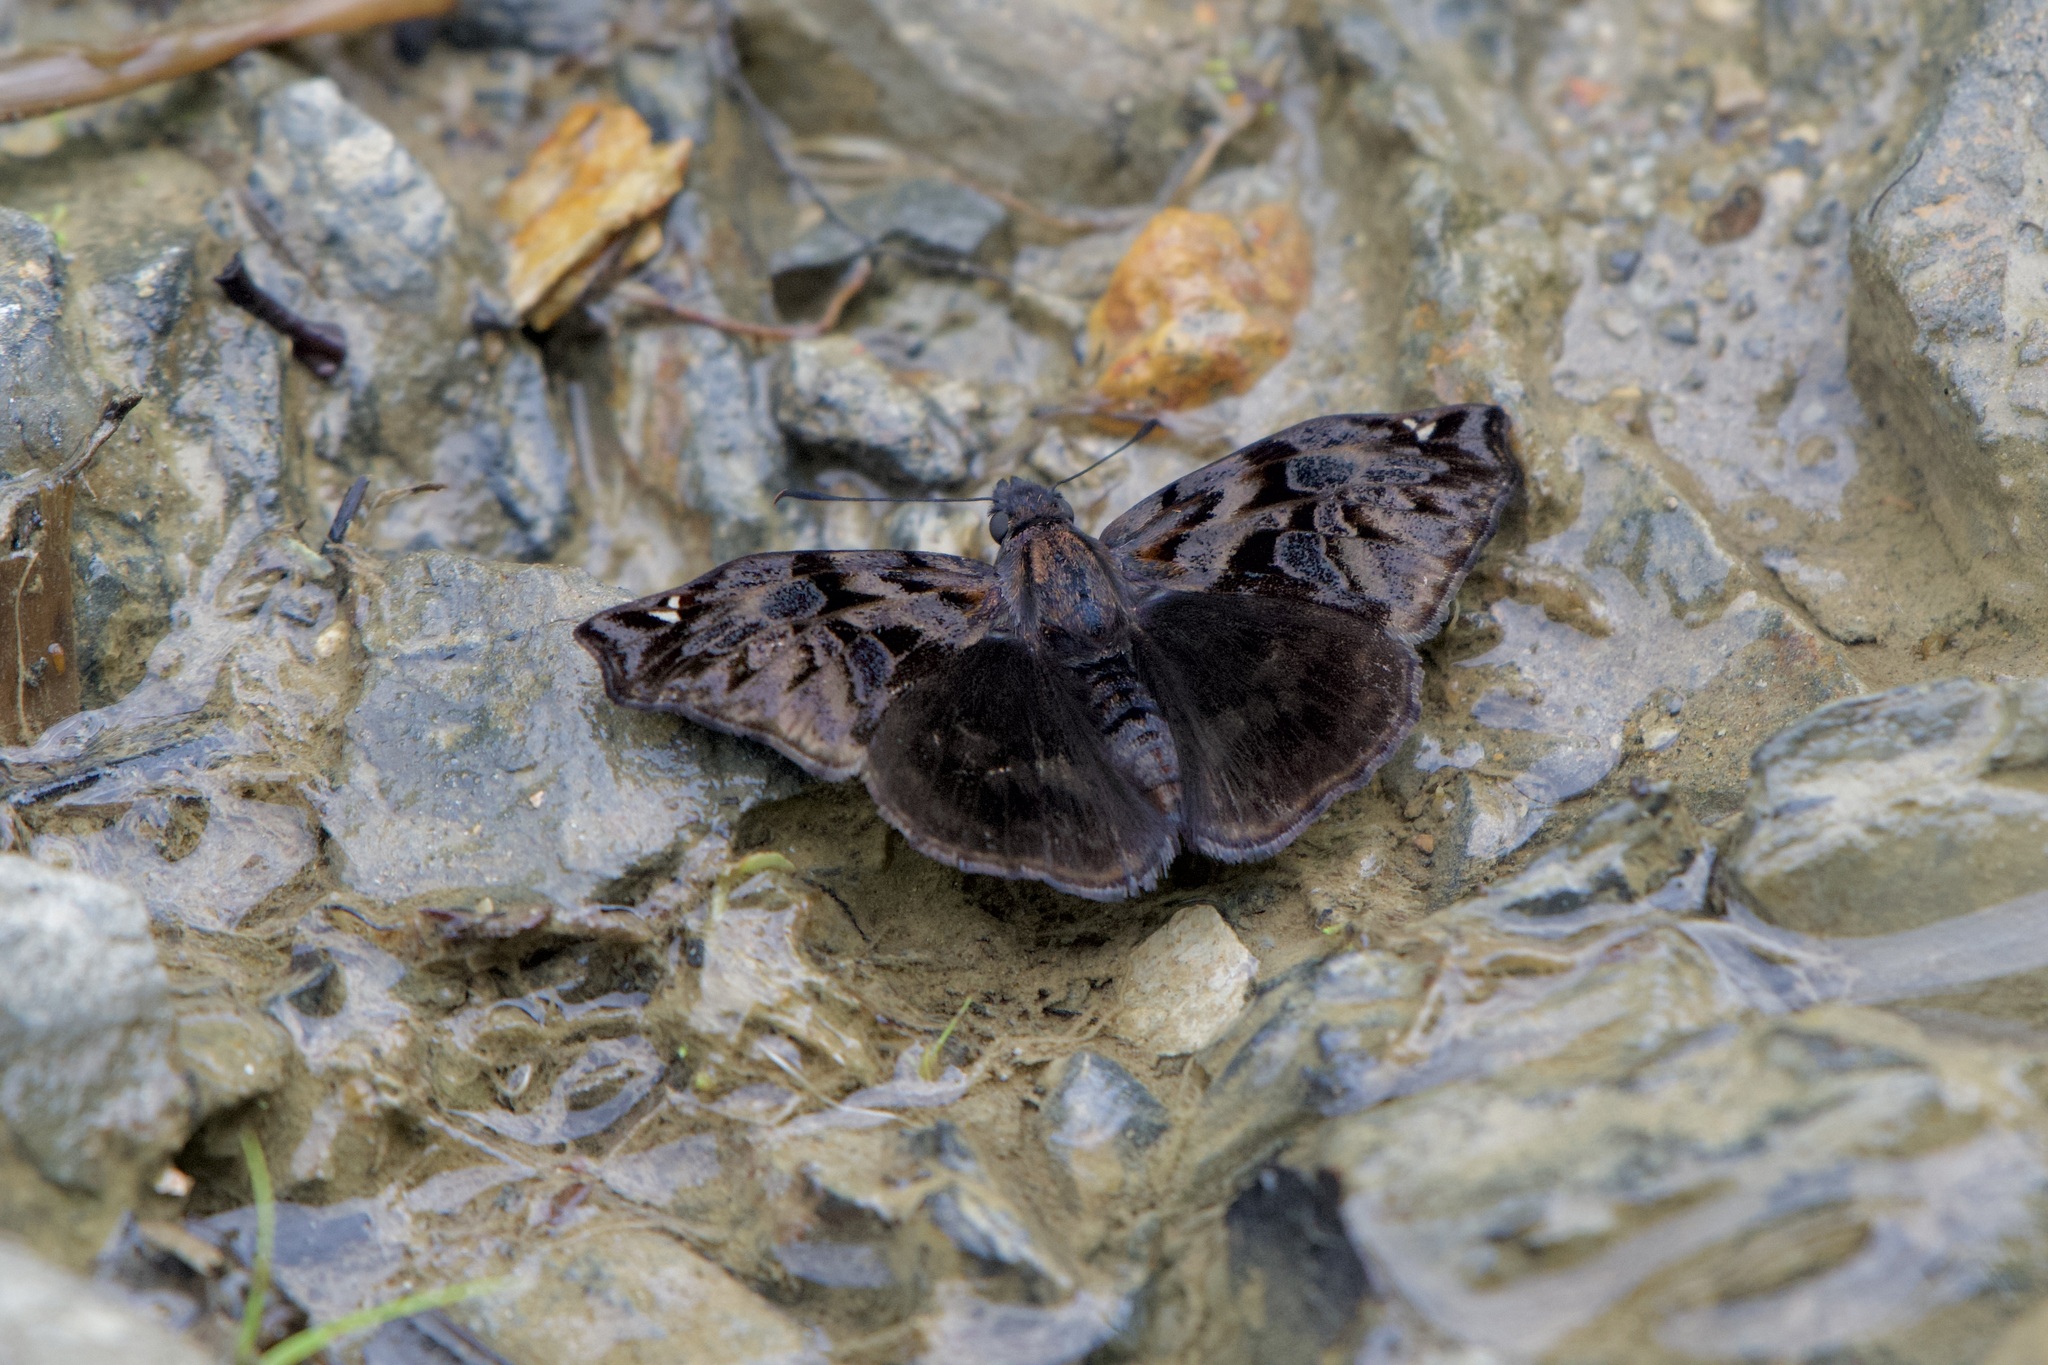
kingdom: Animalia
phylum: Arthropoda
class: Insecta
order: Lepidoptera
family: Hesperiidae
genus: Noctuana
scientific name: Noctuana haematospila
